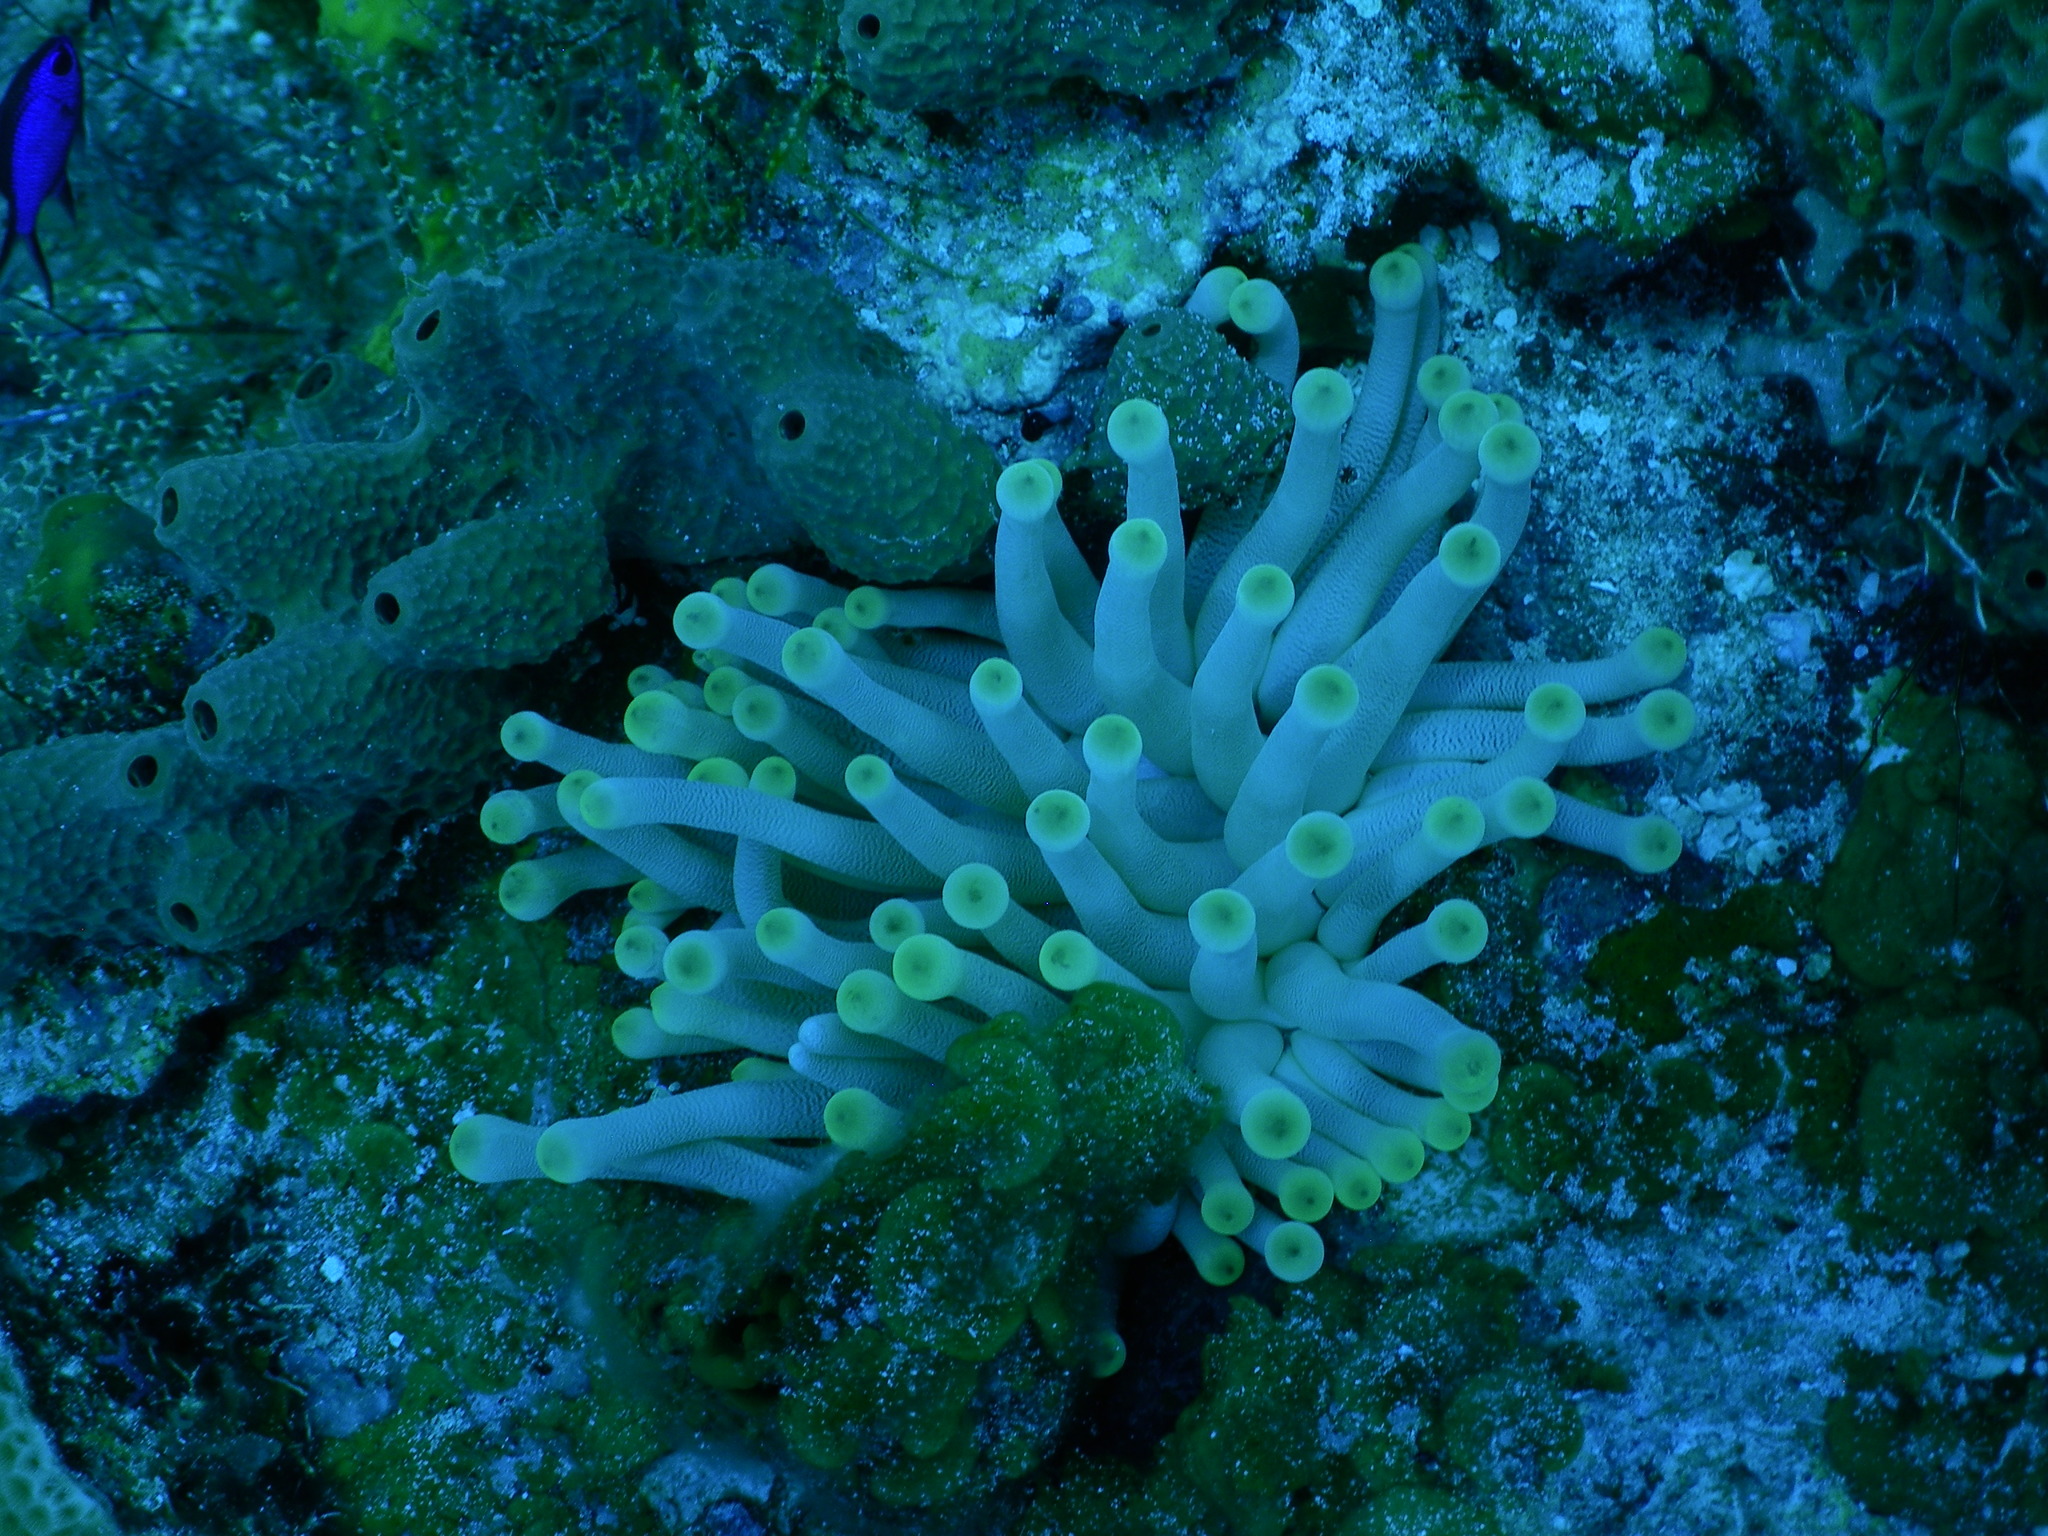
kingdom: Animalia
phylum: Cnidaria
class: Anthozoa
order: Actiniaria
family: Actiniidae
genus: Condylactis
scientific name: Condylactis gigantea
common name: Giant caribbean anemone
